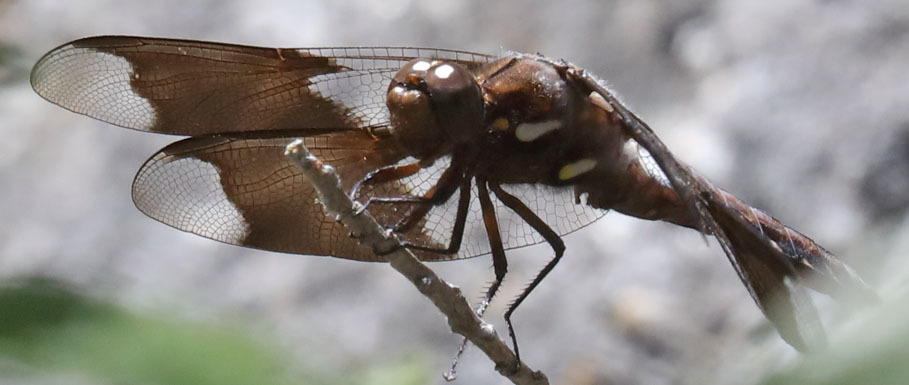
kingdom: Animalia
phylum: Arthropoda
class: Insecta
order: Odonata
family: Libellulidae
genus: Plathemis
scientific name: Plathemis lydia
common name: Common whitetail
